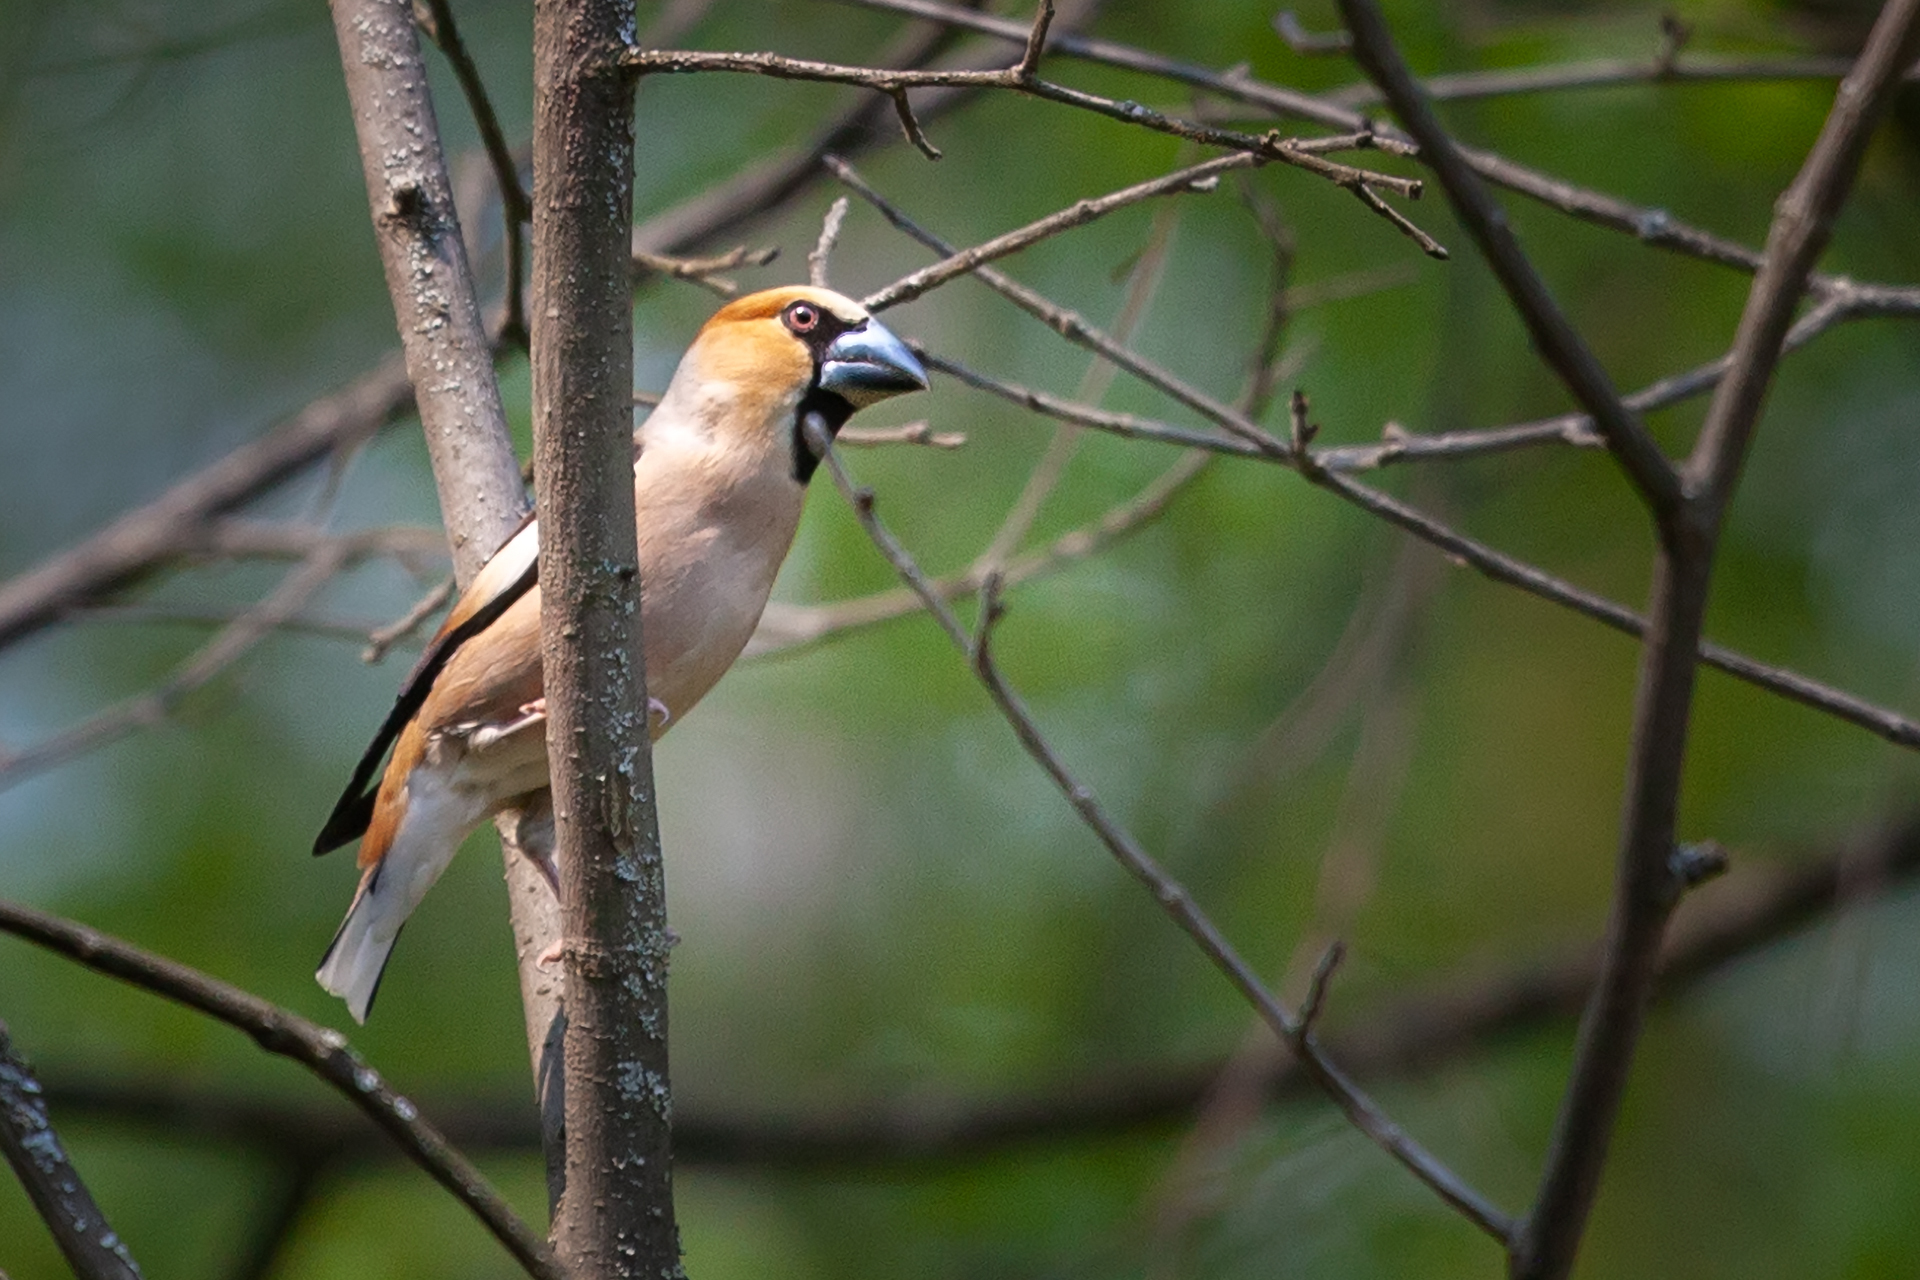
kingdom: Animalia
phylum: Chordata
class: Aves
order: Passeriformes
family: Fringillidae
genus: Coccothraustes
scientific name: Coccothraustes coccothraustes
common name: Hawfinch
